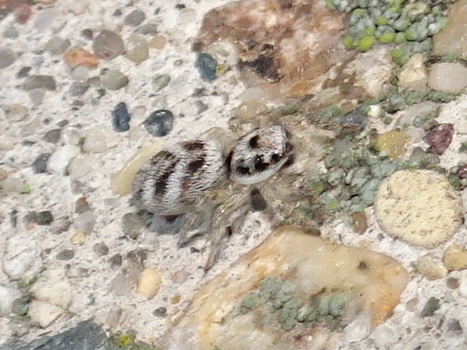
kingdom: Animalia
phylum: Arthropoda
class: Arachnida
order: Araneae
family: Salticidae
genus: Salticus
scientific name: Salticus scenicus
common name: Zebra jumper
